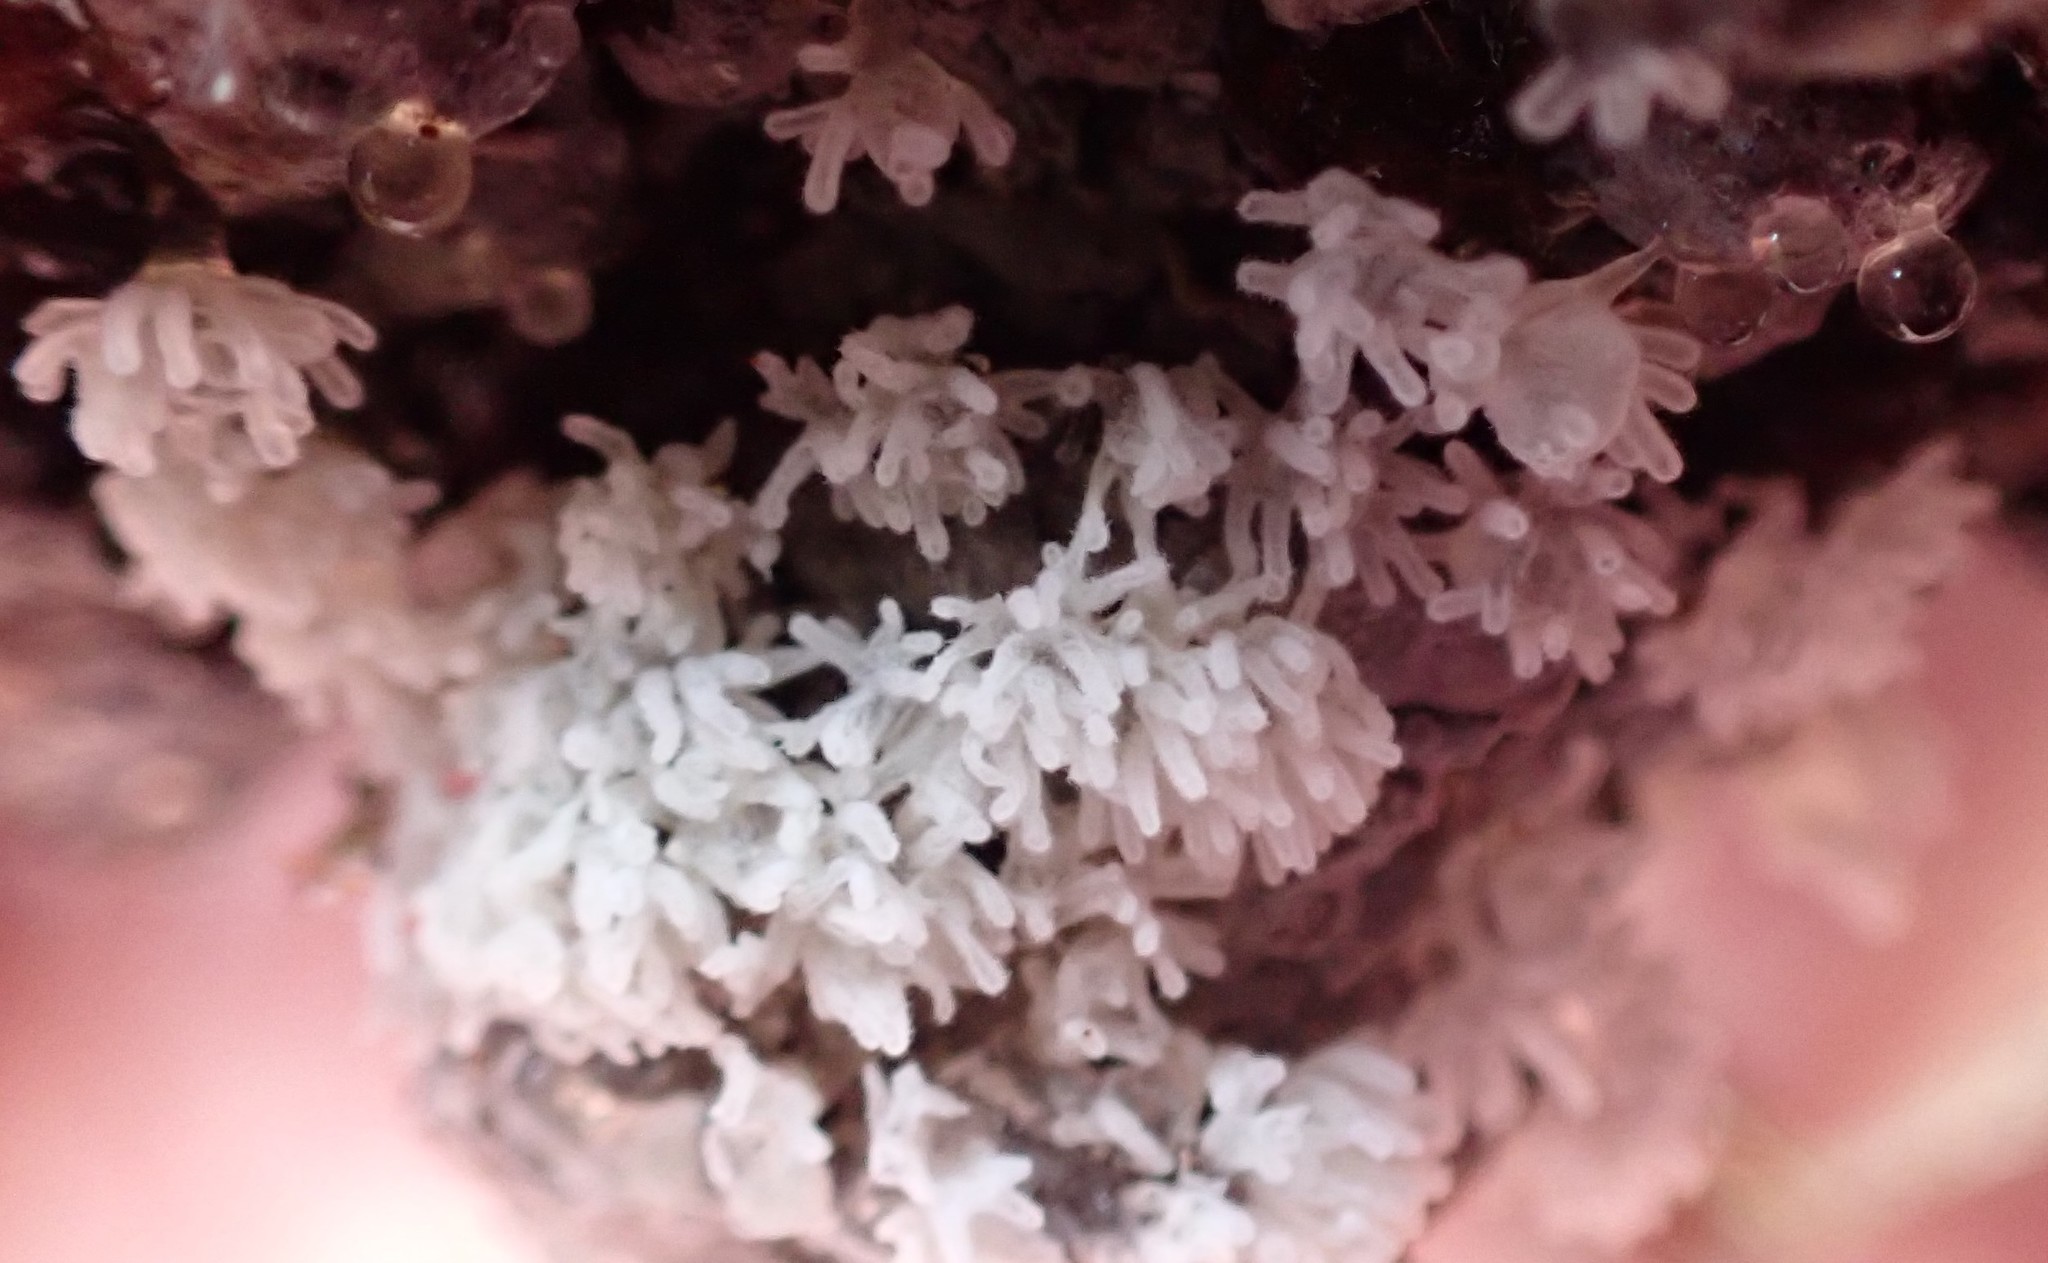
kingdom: Protozoa
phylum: Mycetozoa
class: Protosteliomycetes
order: Ceratiomyxales
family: Ceratiomyxaceae
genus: Ceratiomyxa
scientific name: Ceratiomyxa fruticulosa
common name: Honeycomb coral slime mold
